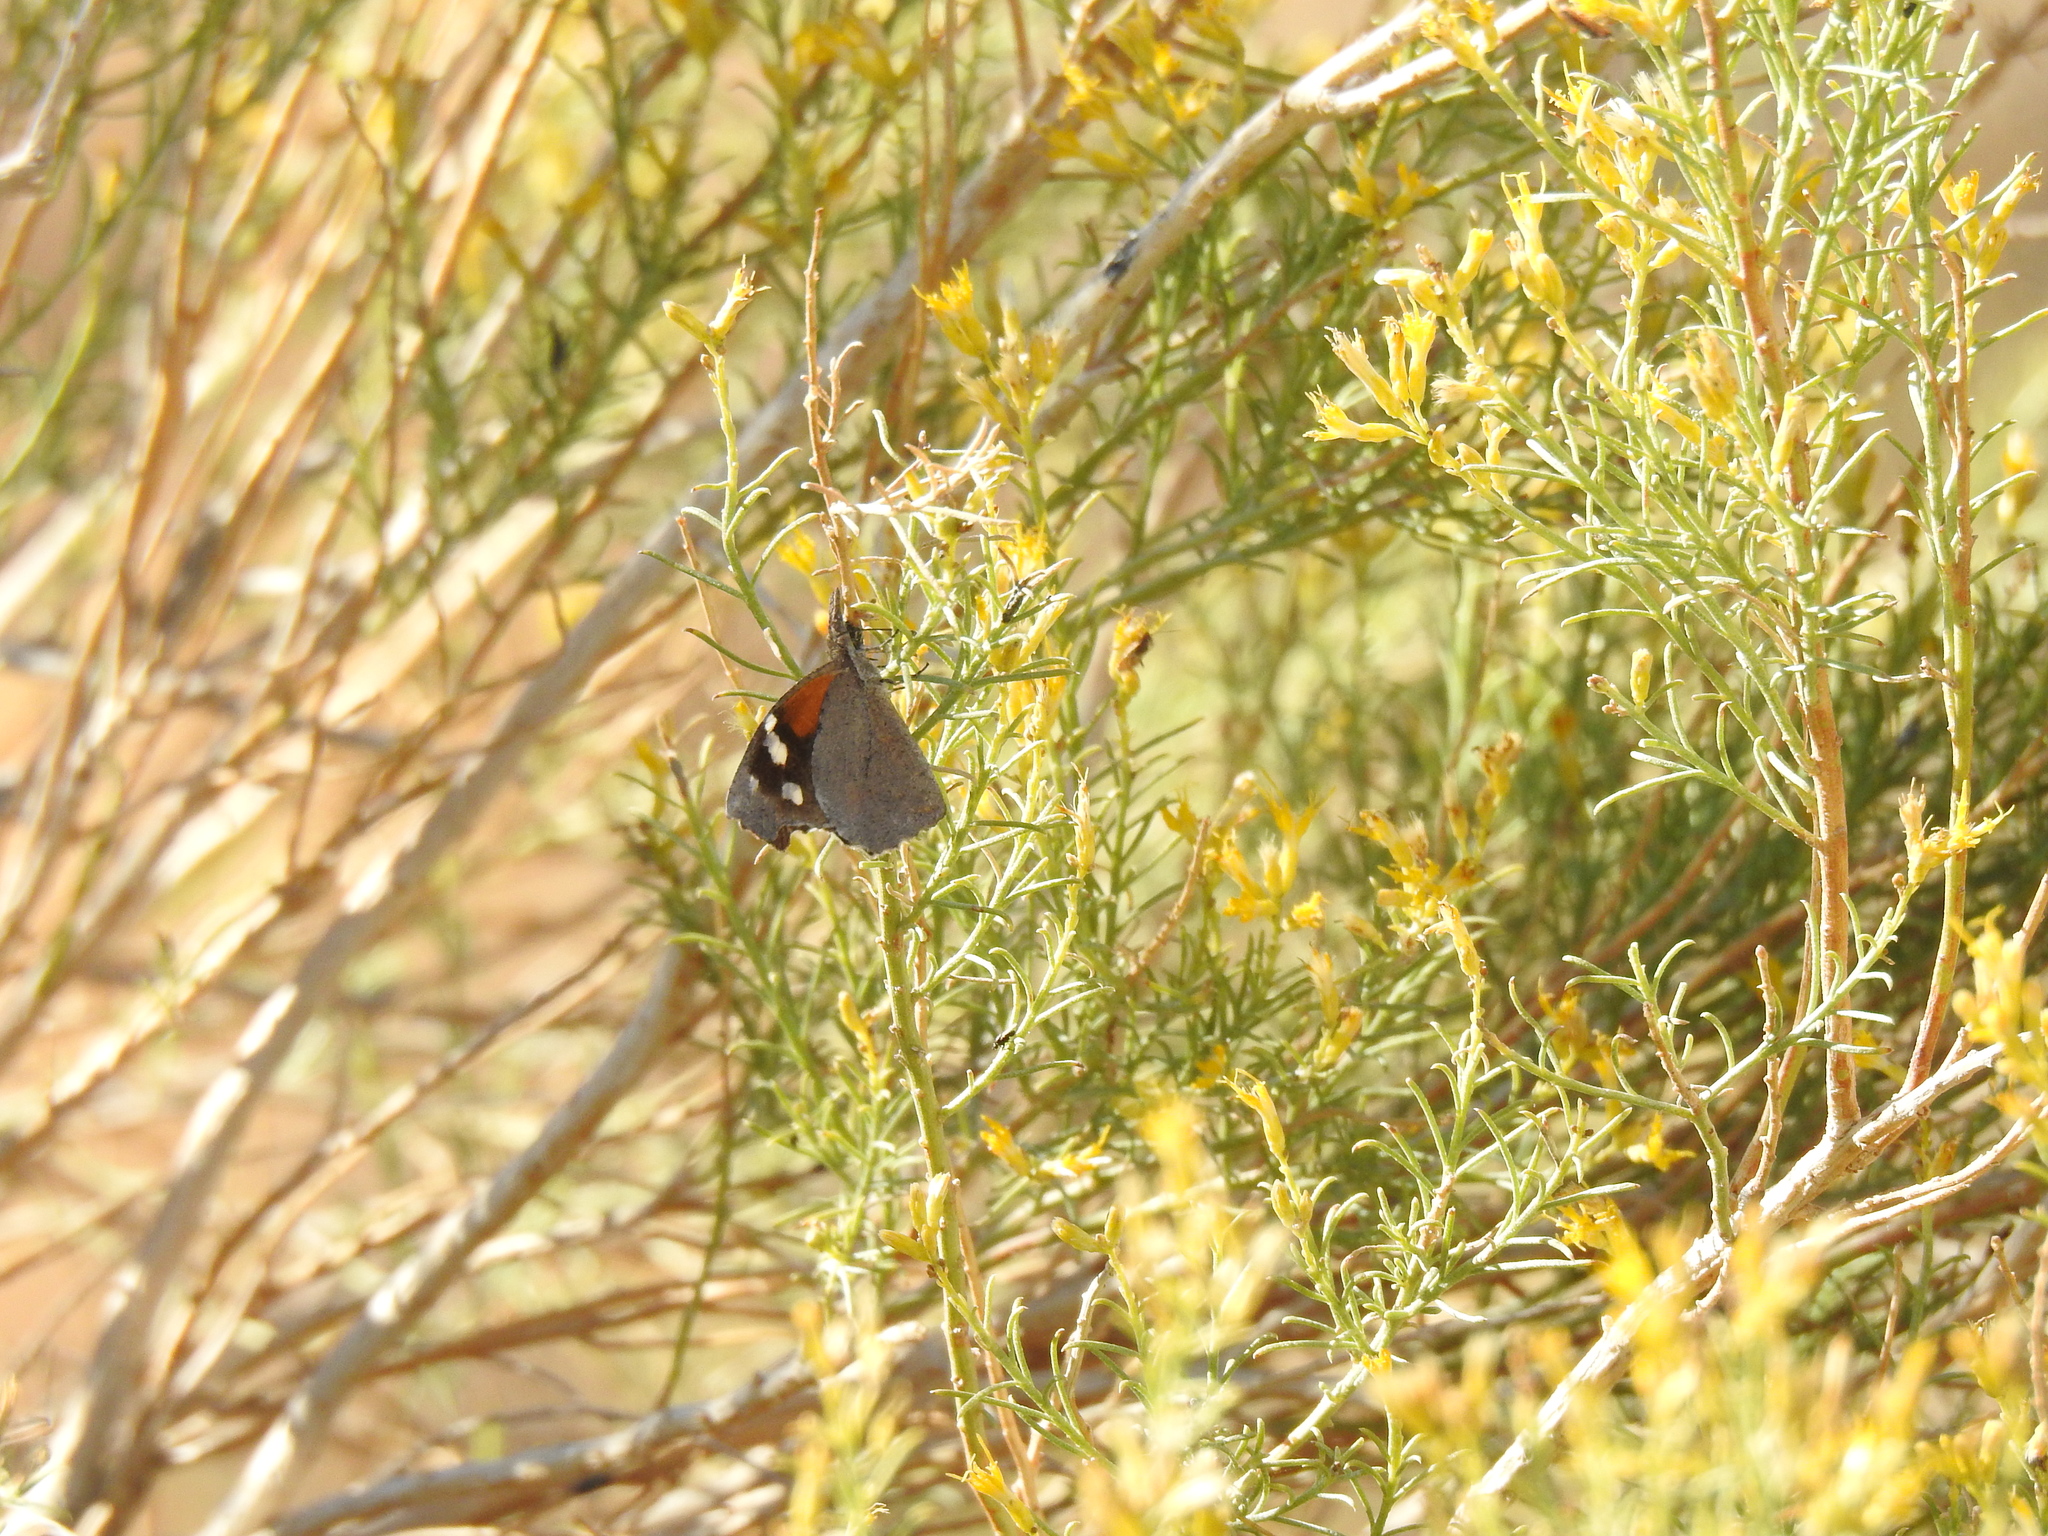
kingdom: Animalia
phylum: Arthropoda
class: Insecta
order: Lepidoptera
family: Nymphalidae
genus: Libytheana
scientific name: Libytheana carinenta
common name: American snout
